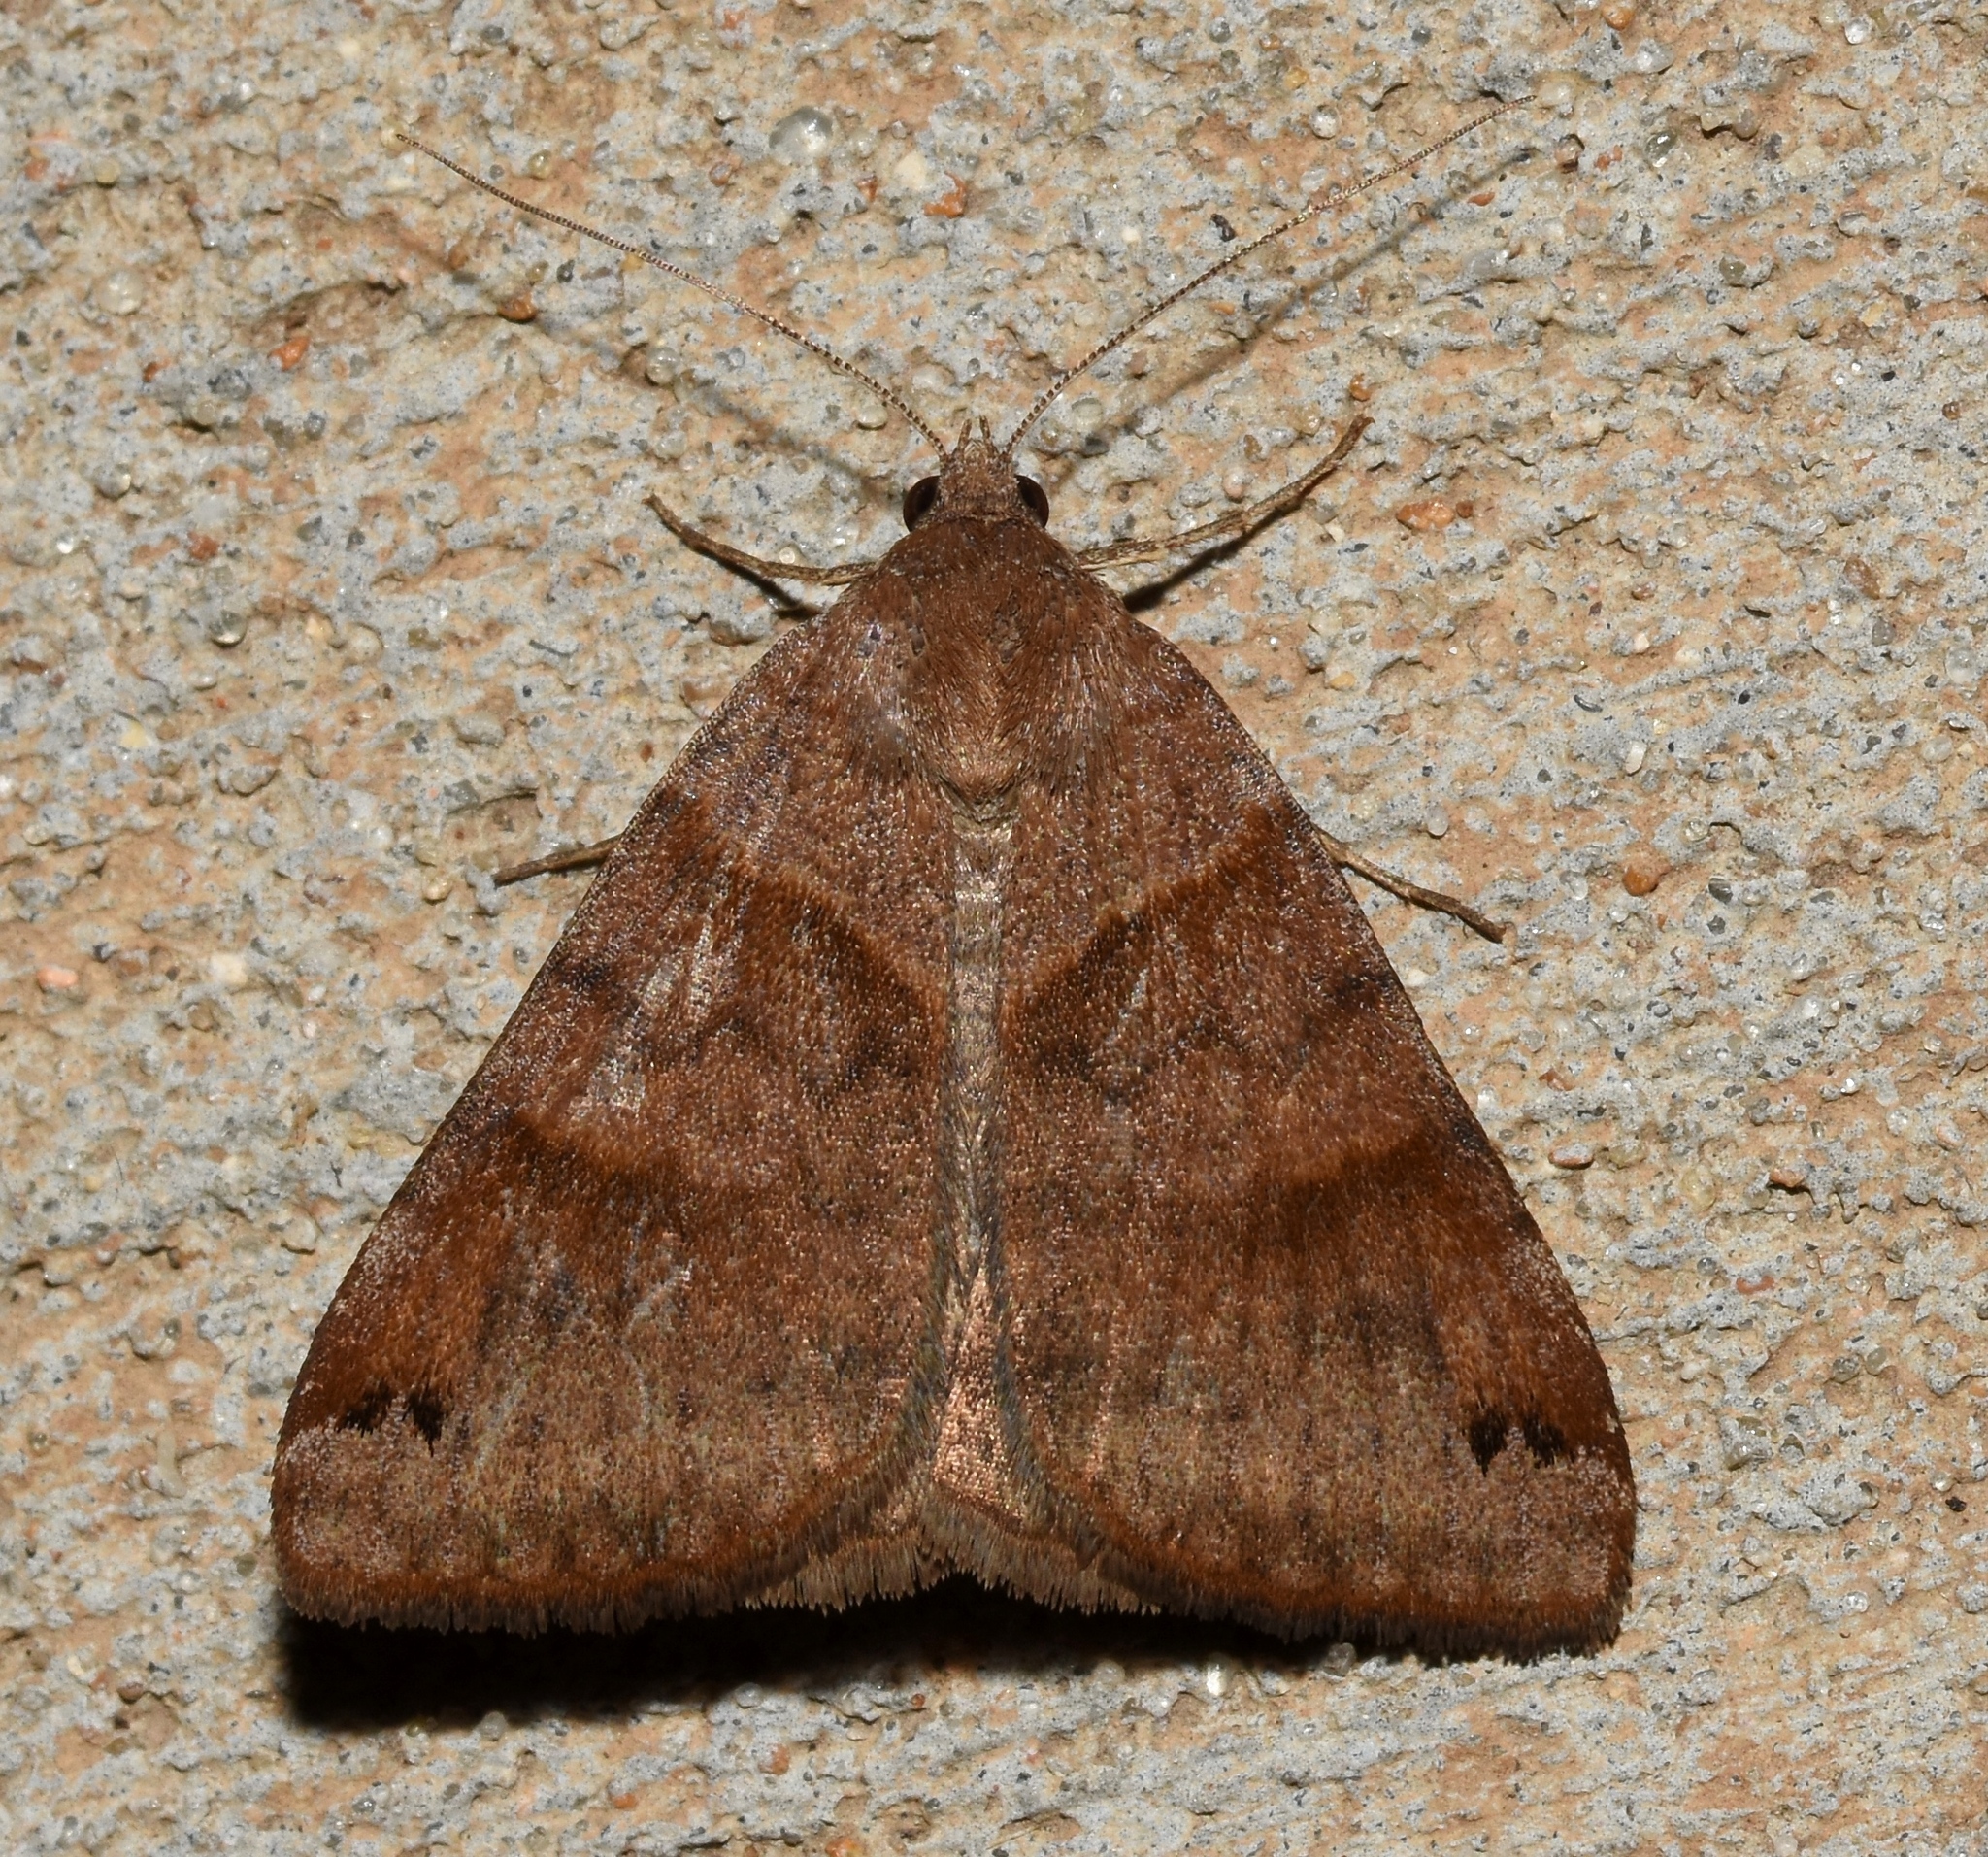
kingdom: Animalia
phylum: Arthropoda
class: Insecta
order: Lepidoptera
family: Erebidae
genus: Caenurgina
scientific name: Caenurgina erechtea
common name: Forage looper moth
